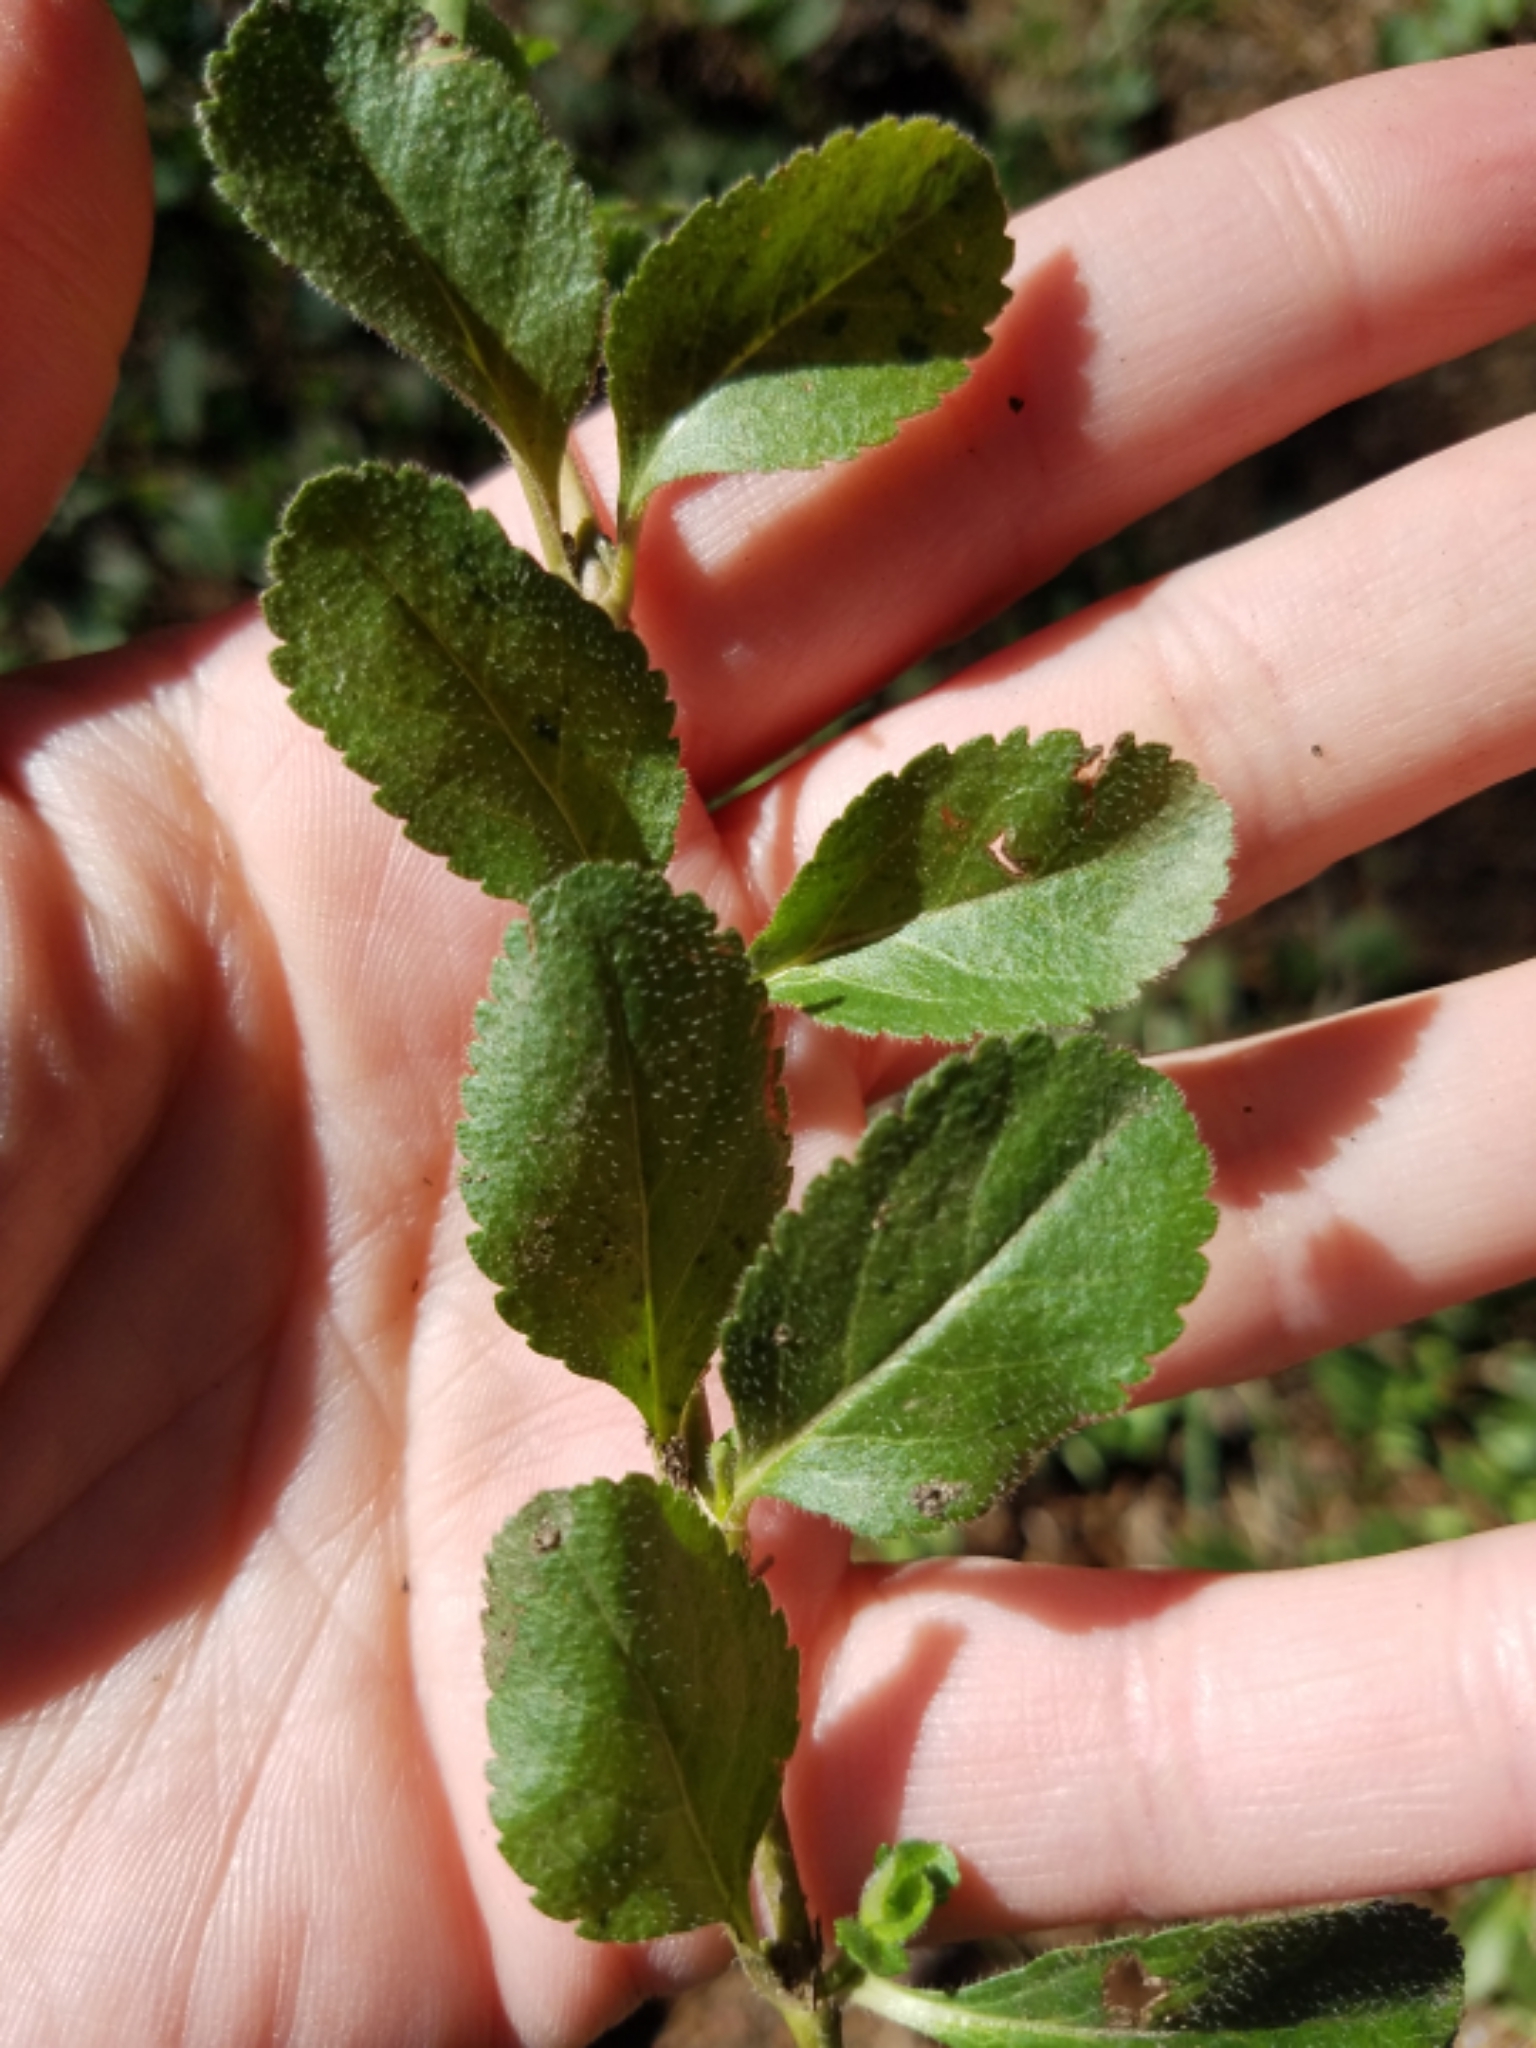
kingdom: Plantae
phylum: Tracheophyta
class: Magnoliopsida
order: Lamiales
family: Plantaginaceae
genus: Veronica
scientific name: Veronica officinalis
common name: Common speedwell
